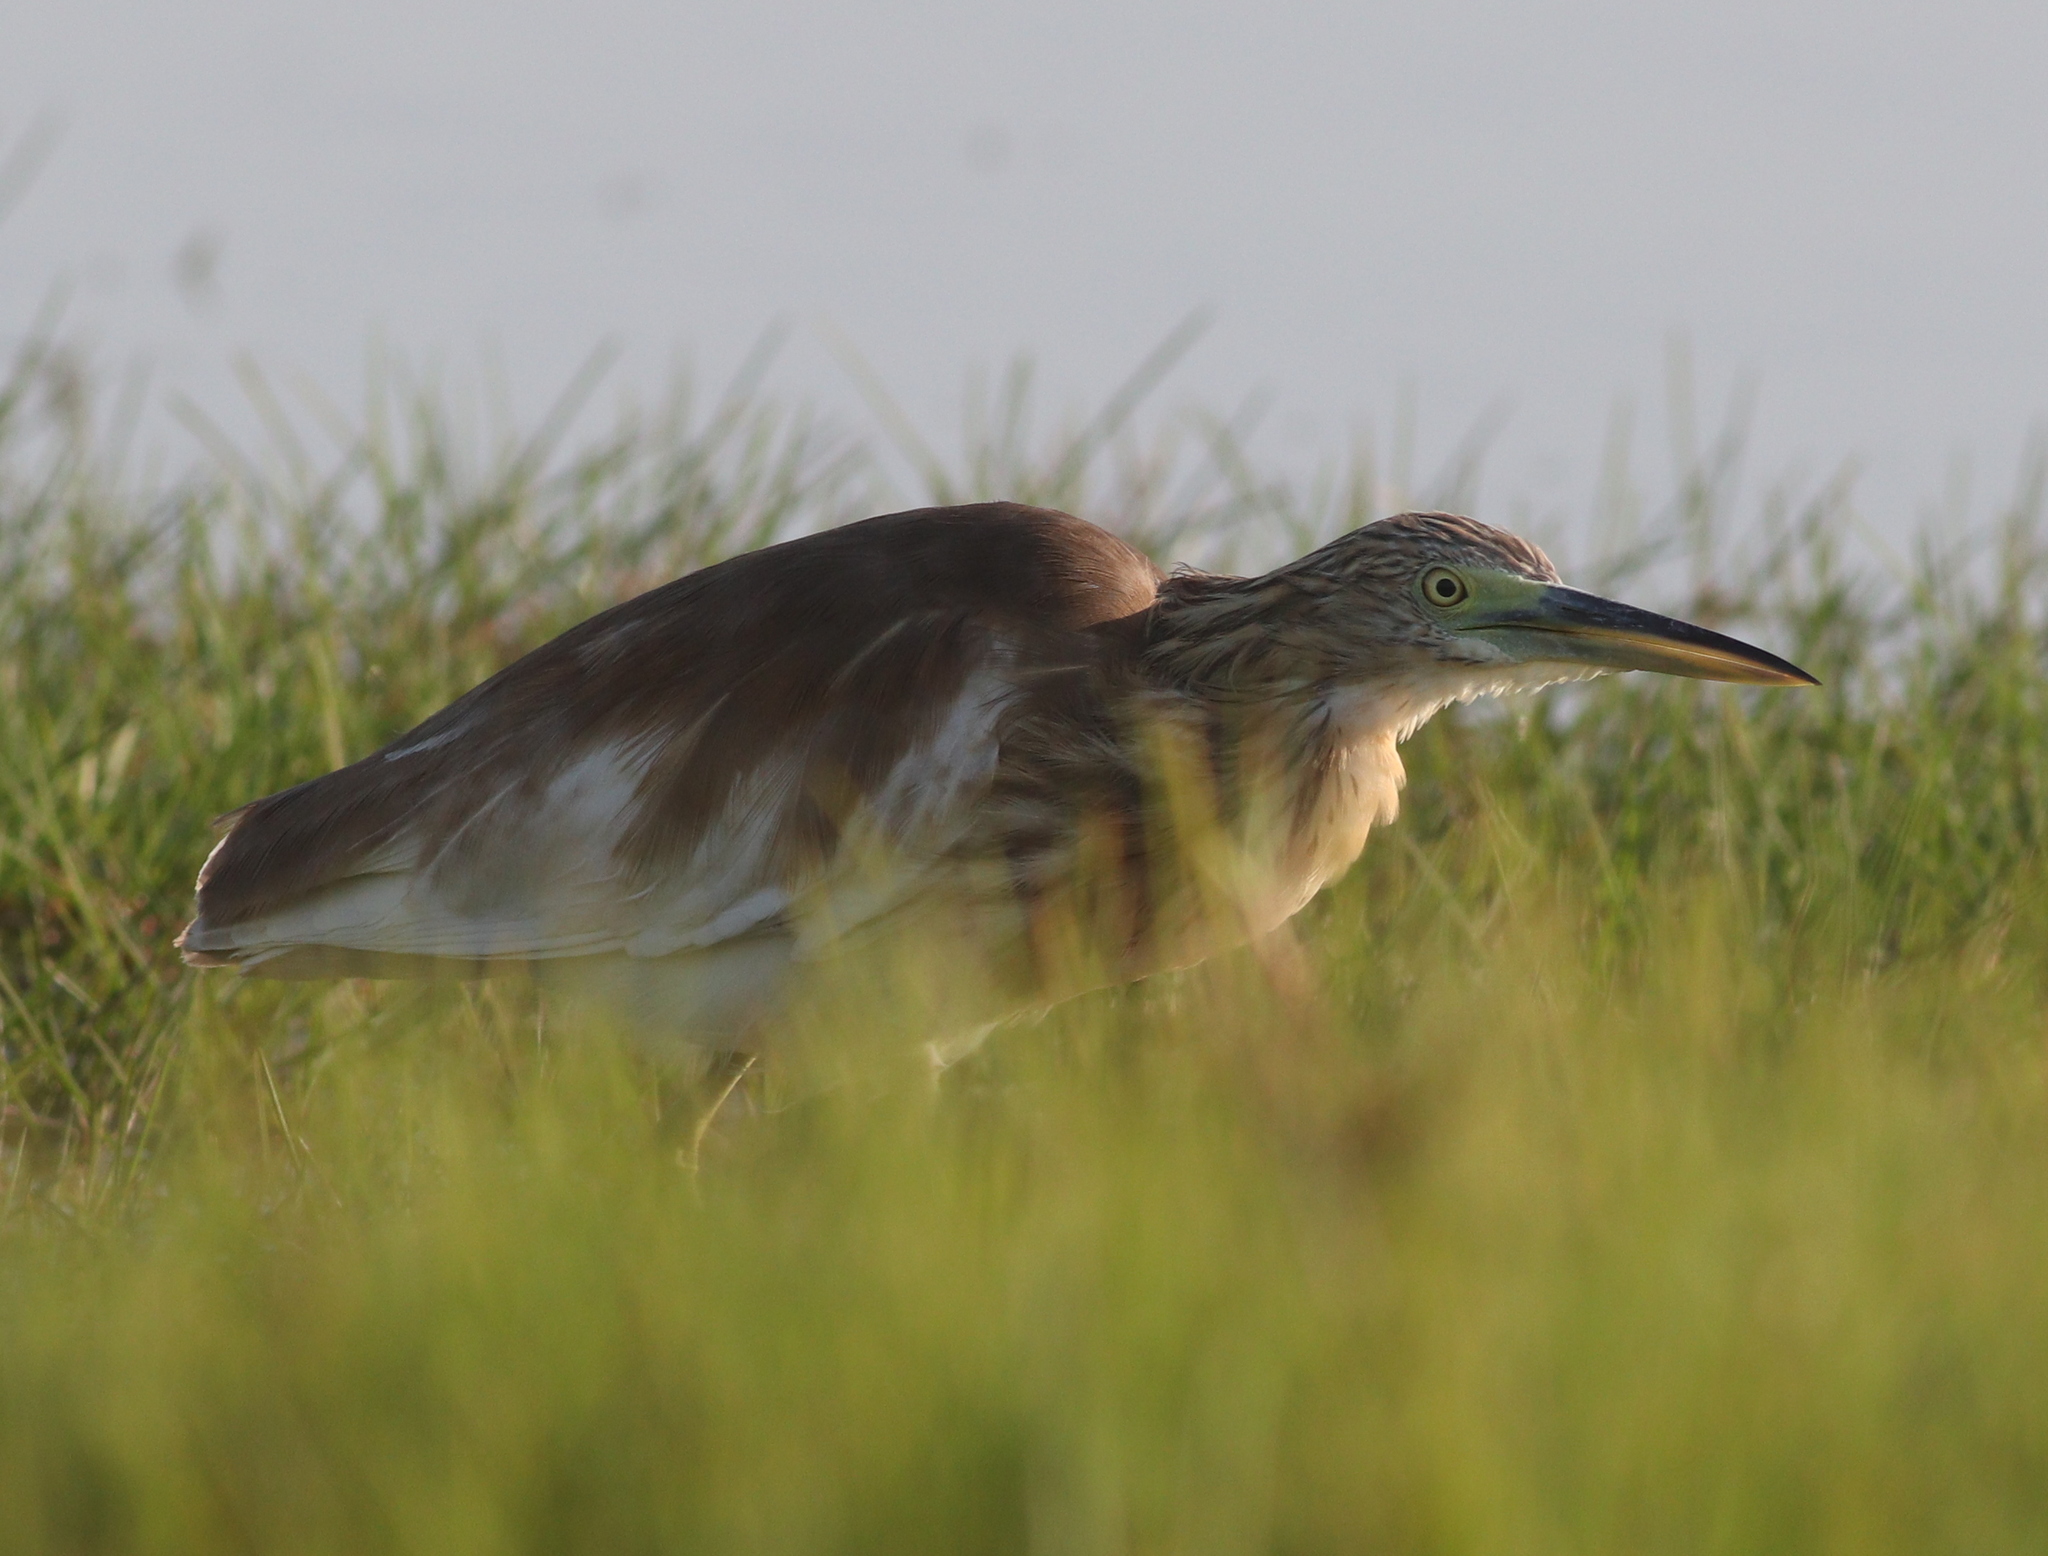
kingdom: Animalia
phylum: Chordata
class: Aves
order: Pelecaniformes
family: Ardeidae
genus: Ardeola
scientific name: Ardeola ralloides
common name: Squacco heron
